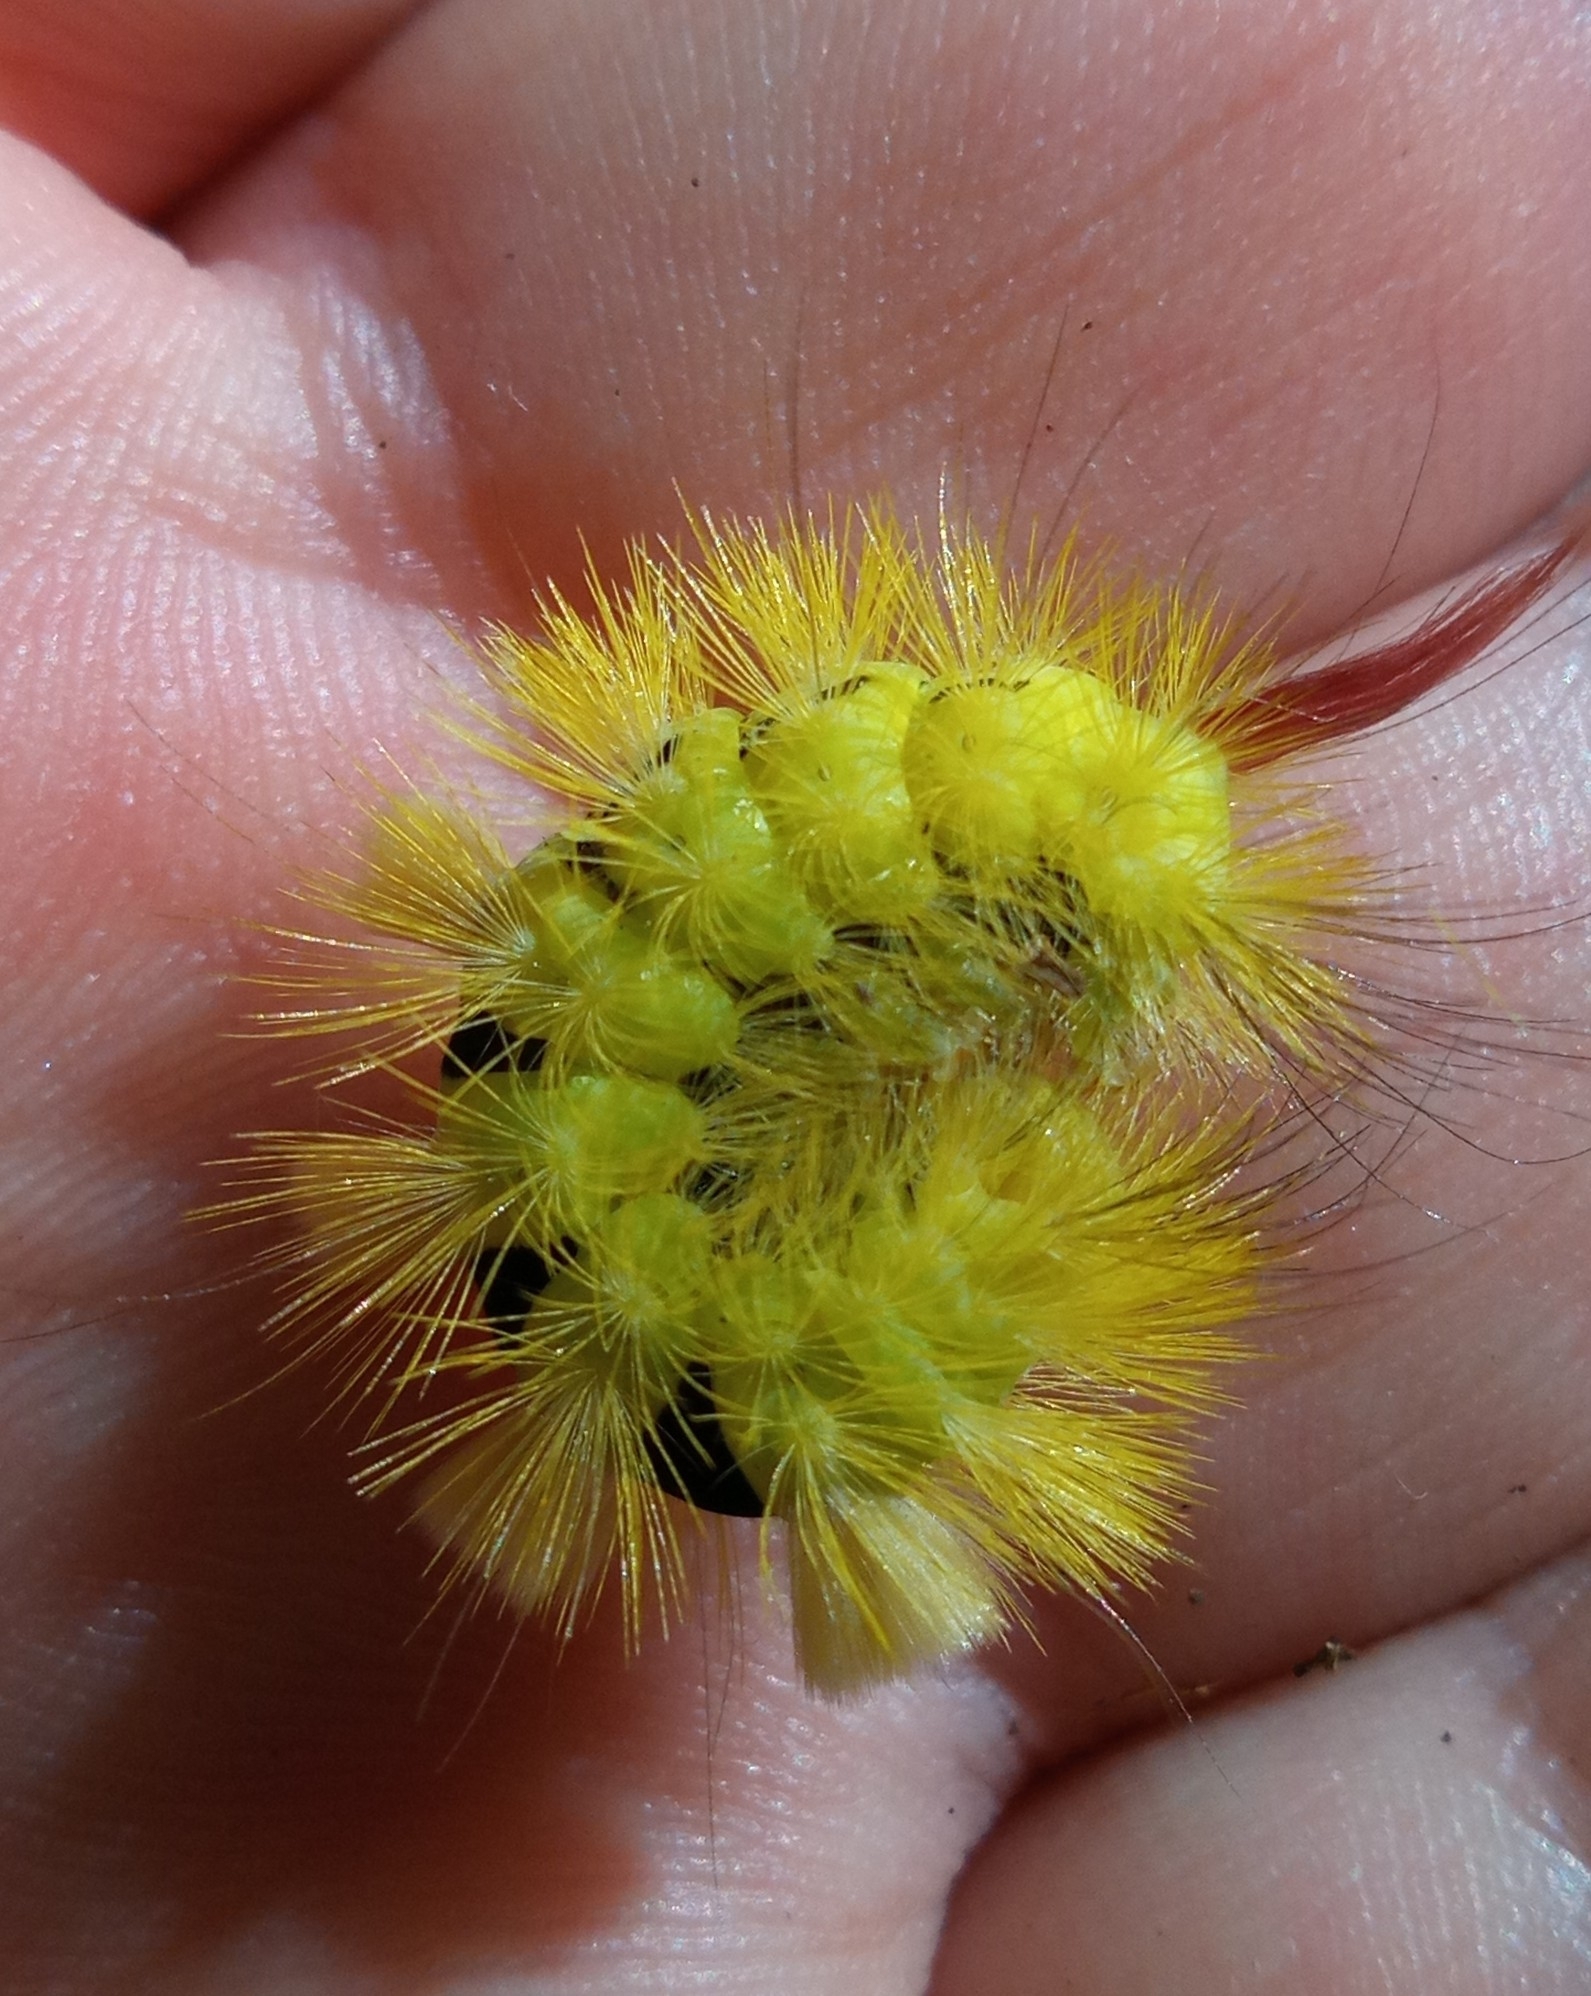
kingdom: Animalia
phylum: Arthropoda
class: Insecta
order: Lepidoptera
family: Erebidae
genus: Calliteara
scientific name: Calliteara pudibunda
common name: Pale tussock
